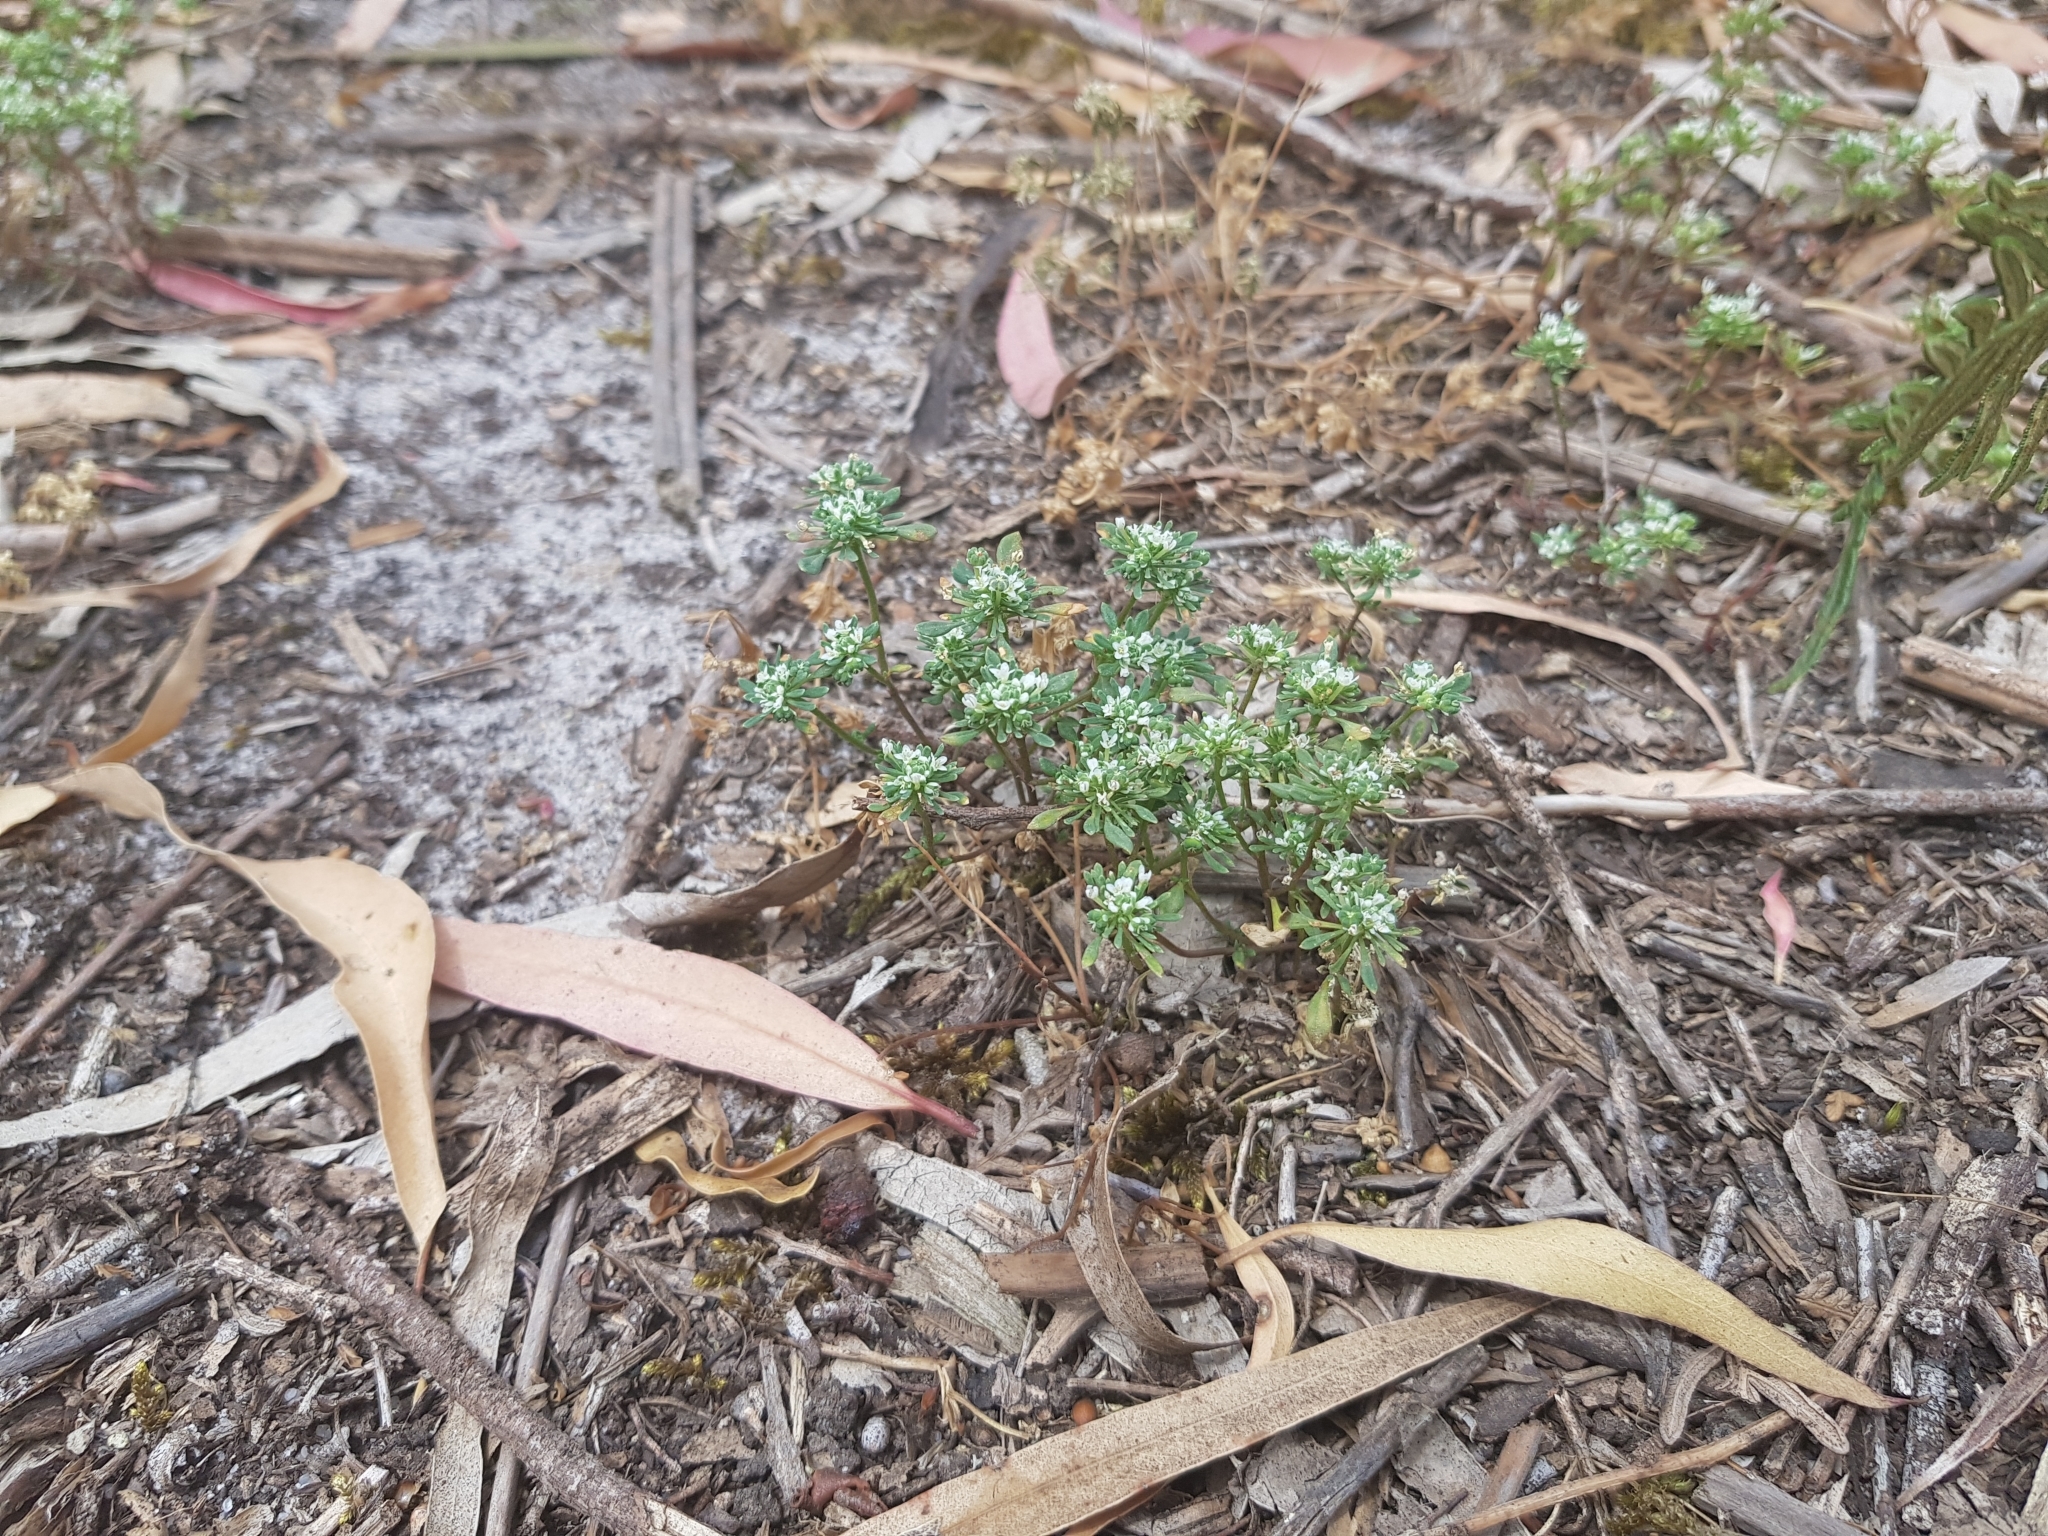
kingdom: Plantae
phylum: Tracheophyta
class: Magnoliopsida
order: Malpighiales
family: Phyllanthaceae
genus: Poranthera
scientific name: Poranthera microphylla
